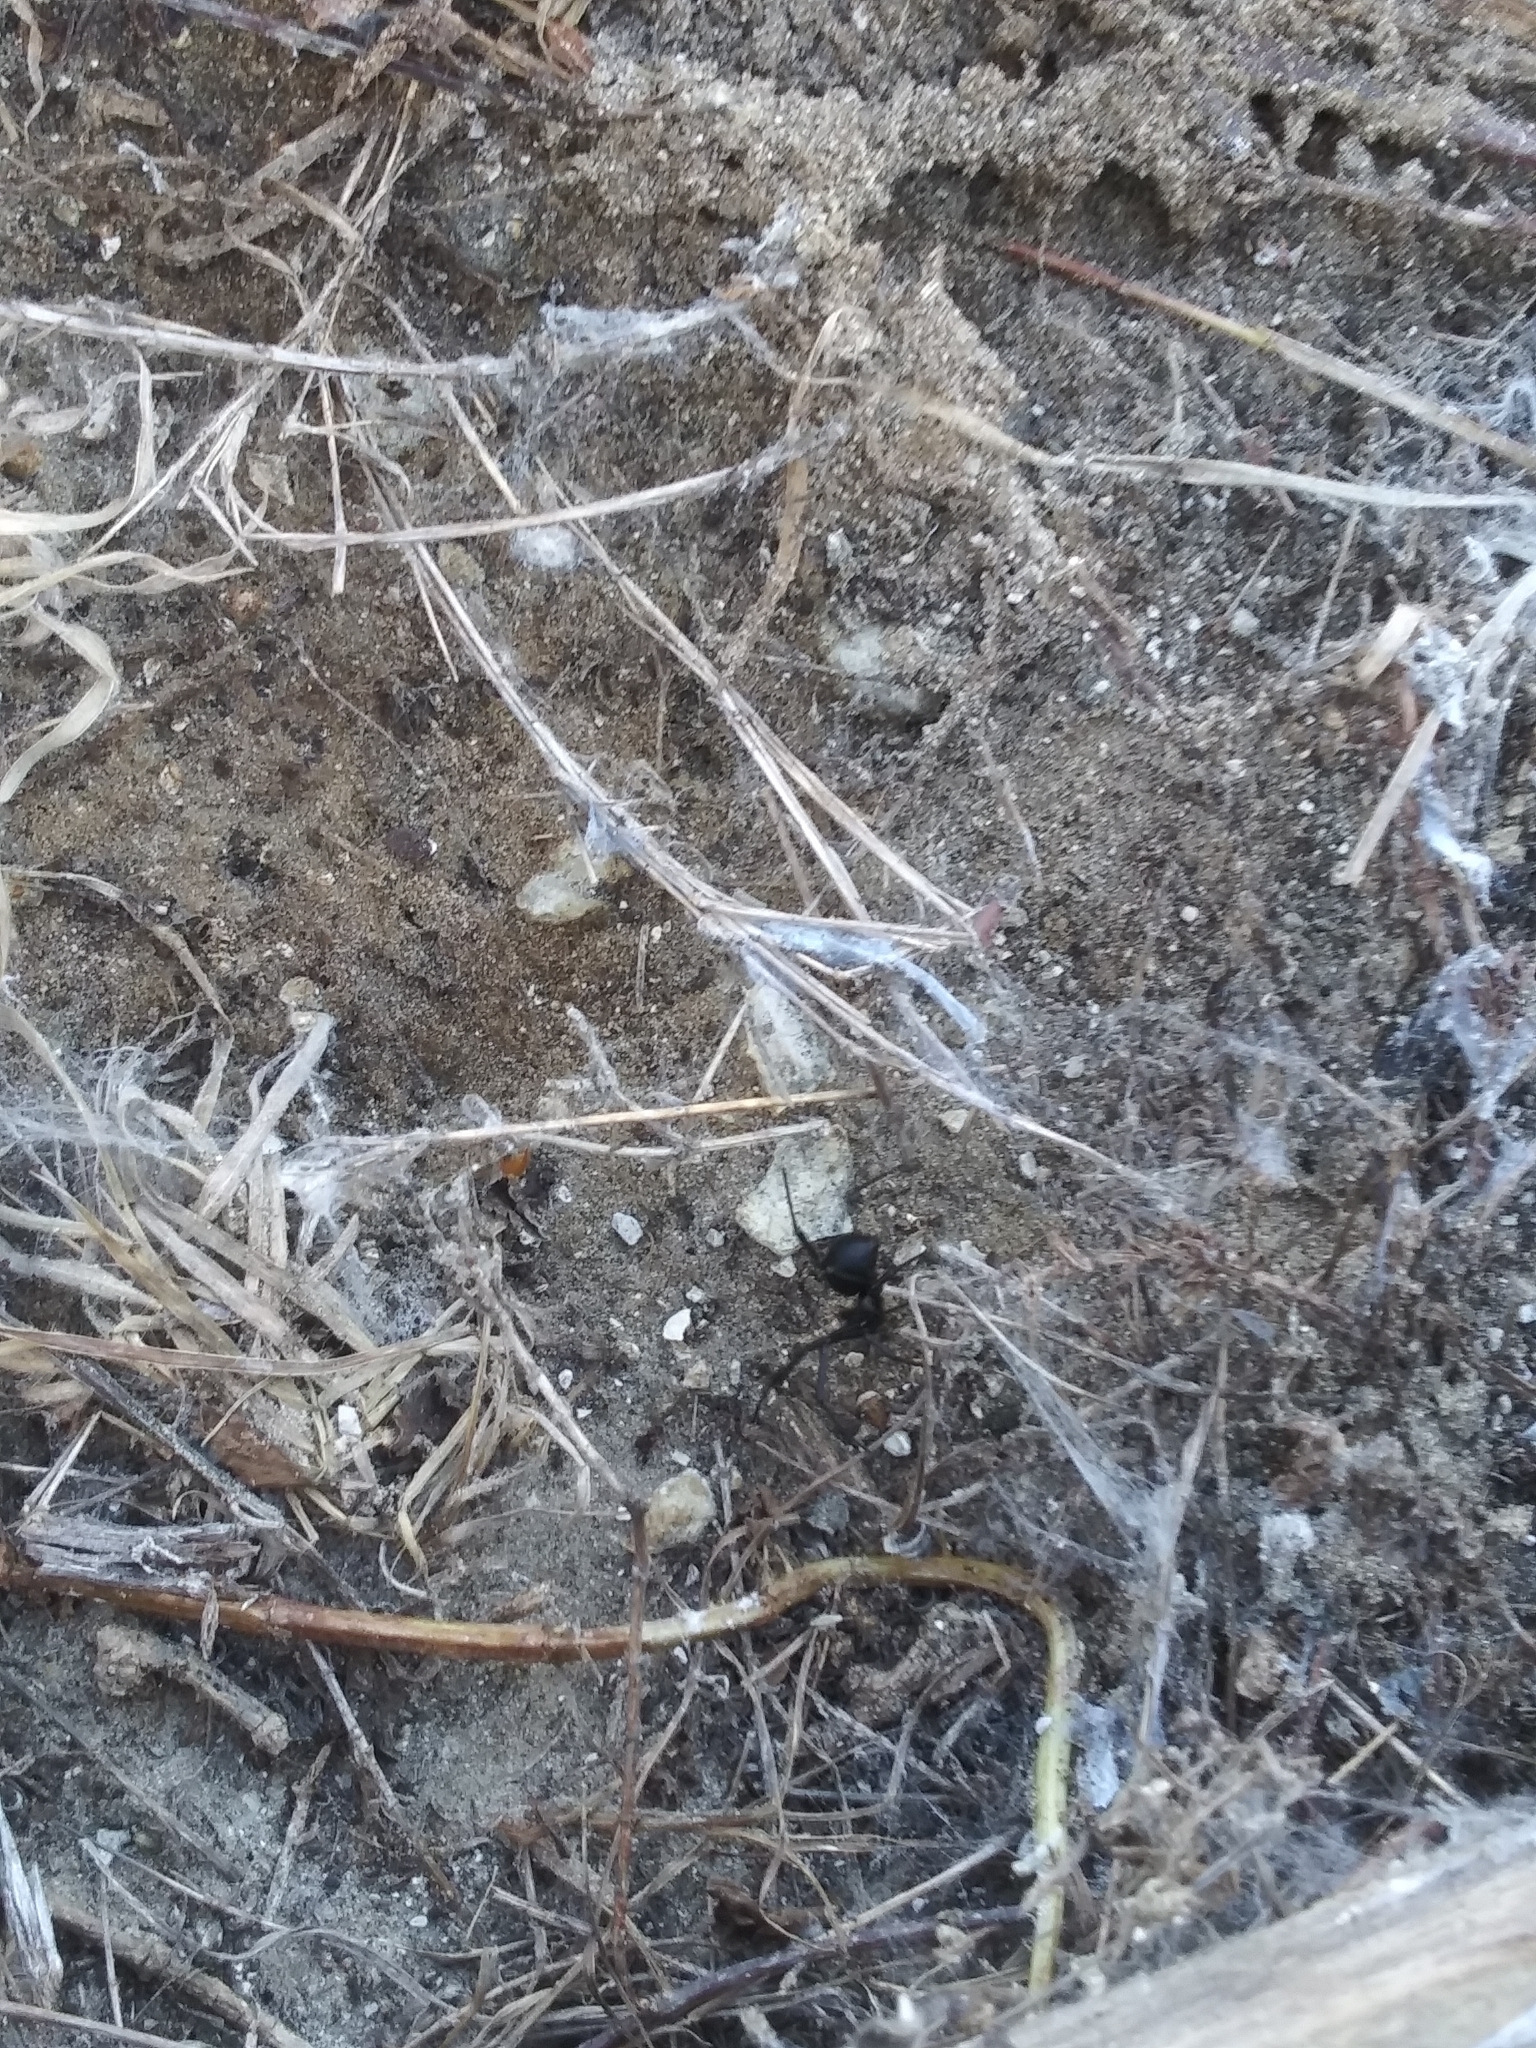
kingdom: Animalia
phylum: Arthropoda
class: Arachnida
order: Araneae
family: Theridiidae
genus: Latrodectus
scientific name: Latrodectus mactans
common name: Cobweb spiders
